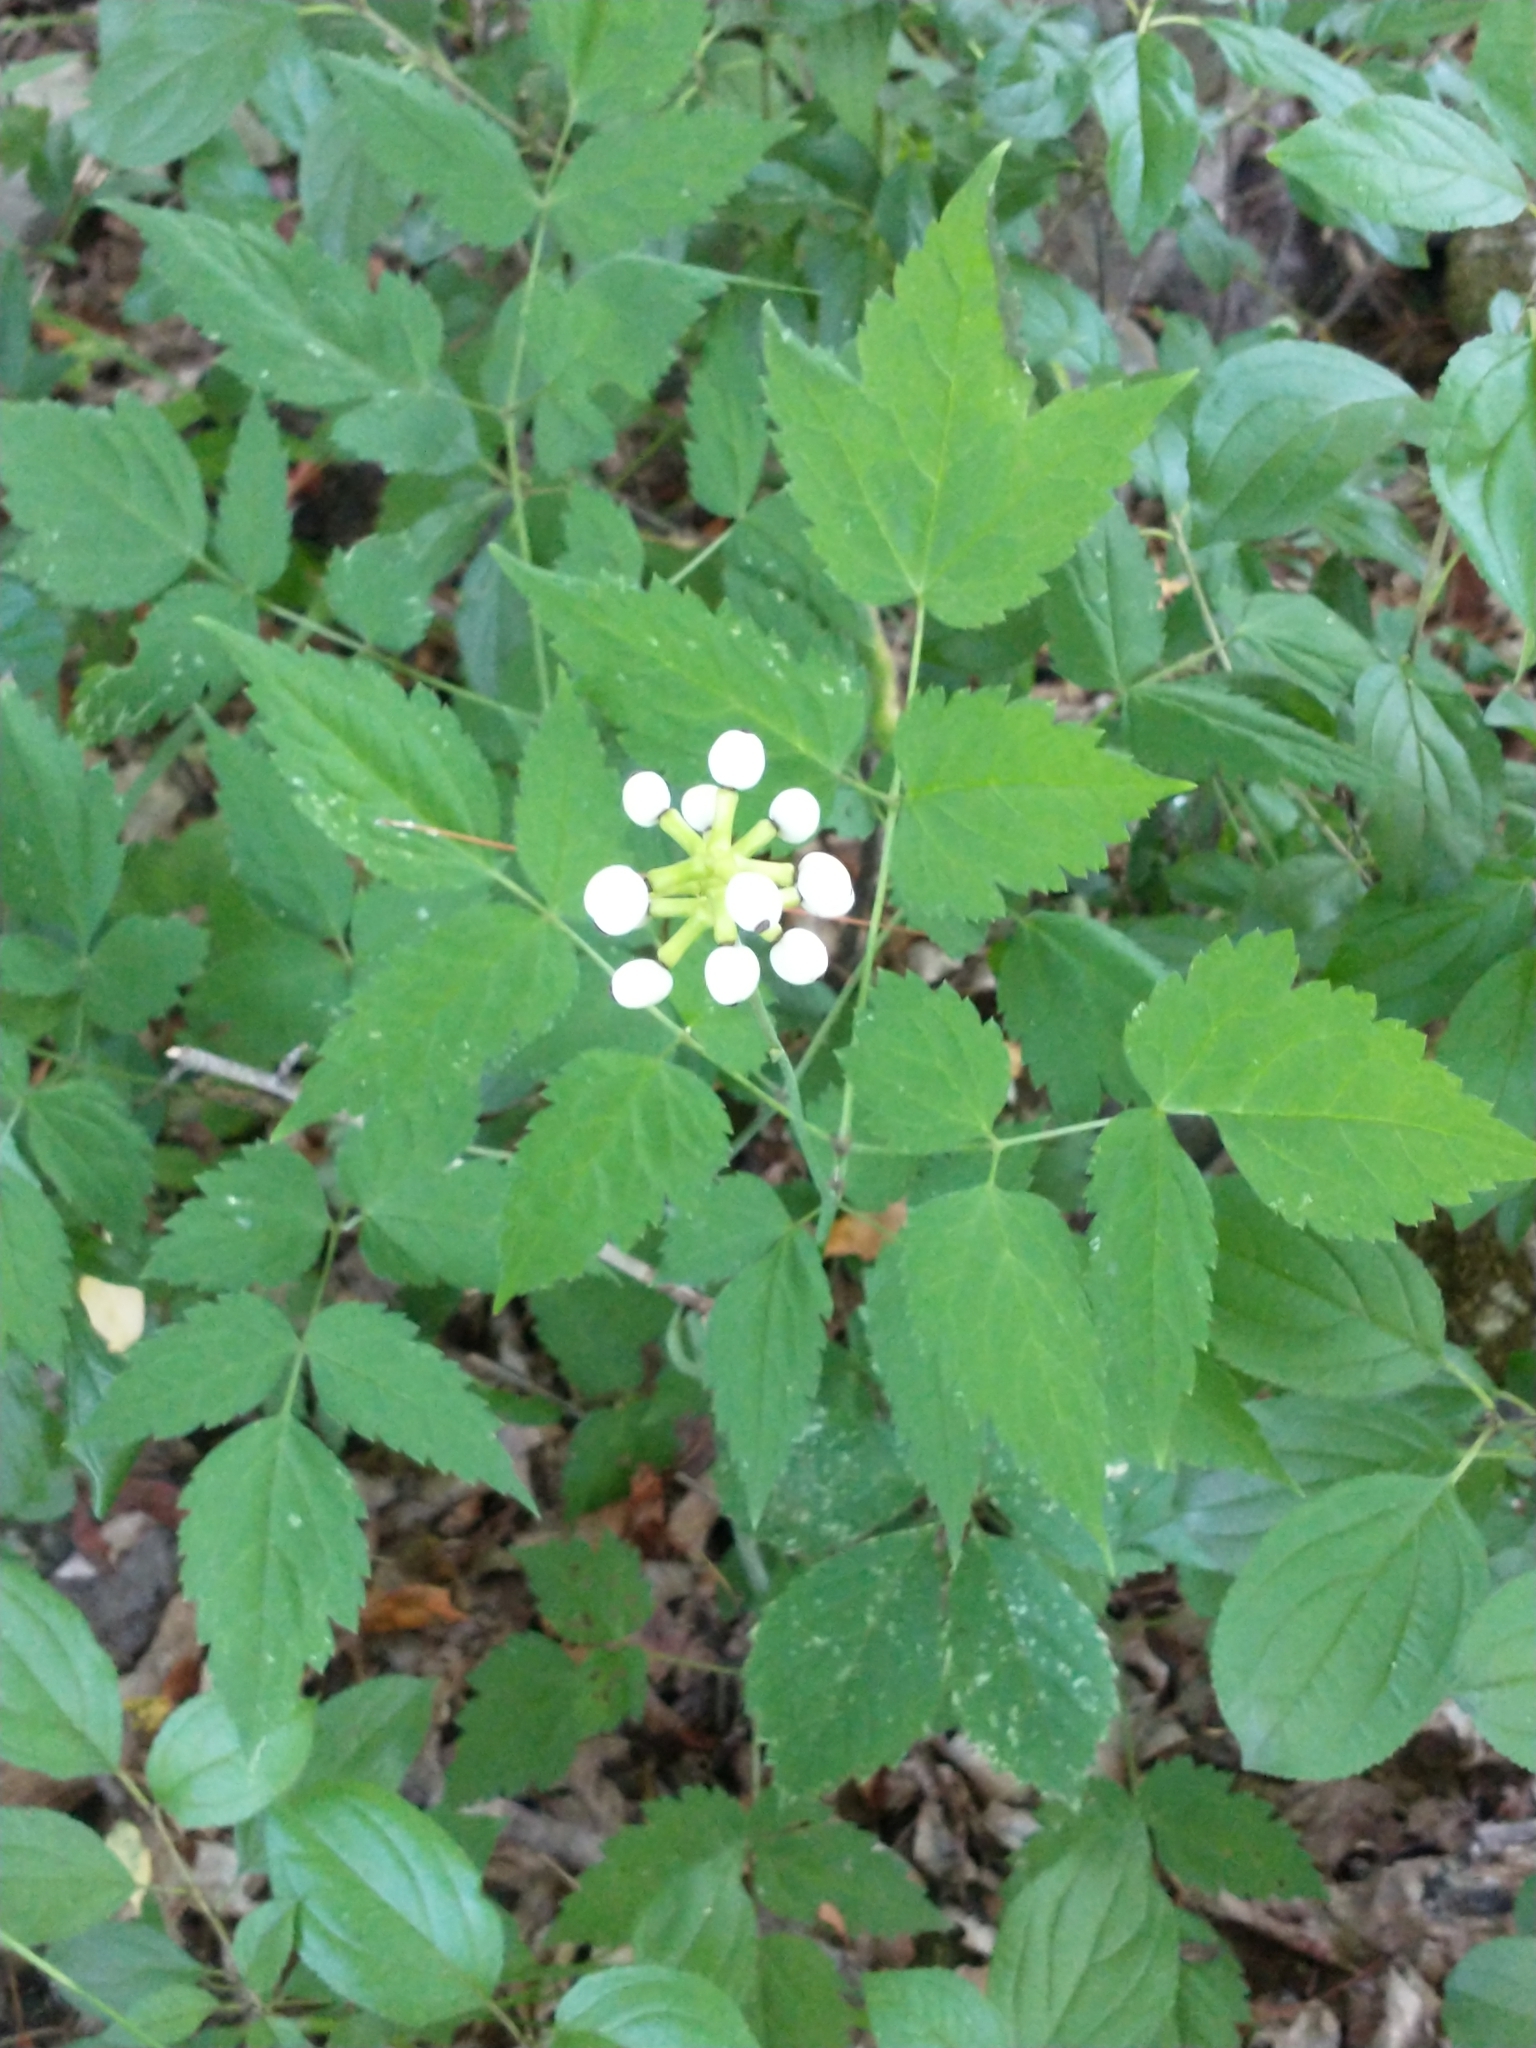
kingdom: Plantae
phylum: Tracheophyta
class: Magnoliopsida
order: Ranunculales
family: Ranunculaceae
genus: Actaea
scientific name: Actaea pachypoda
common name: Doll's-eyes
